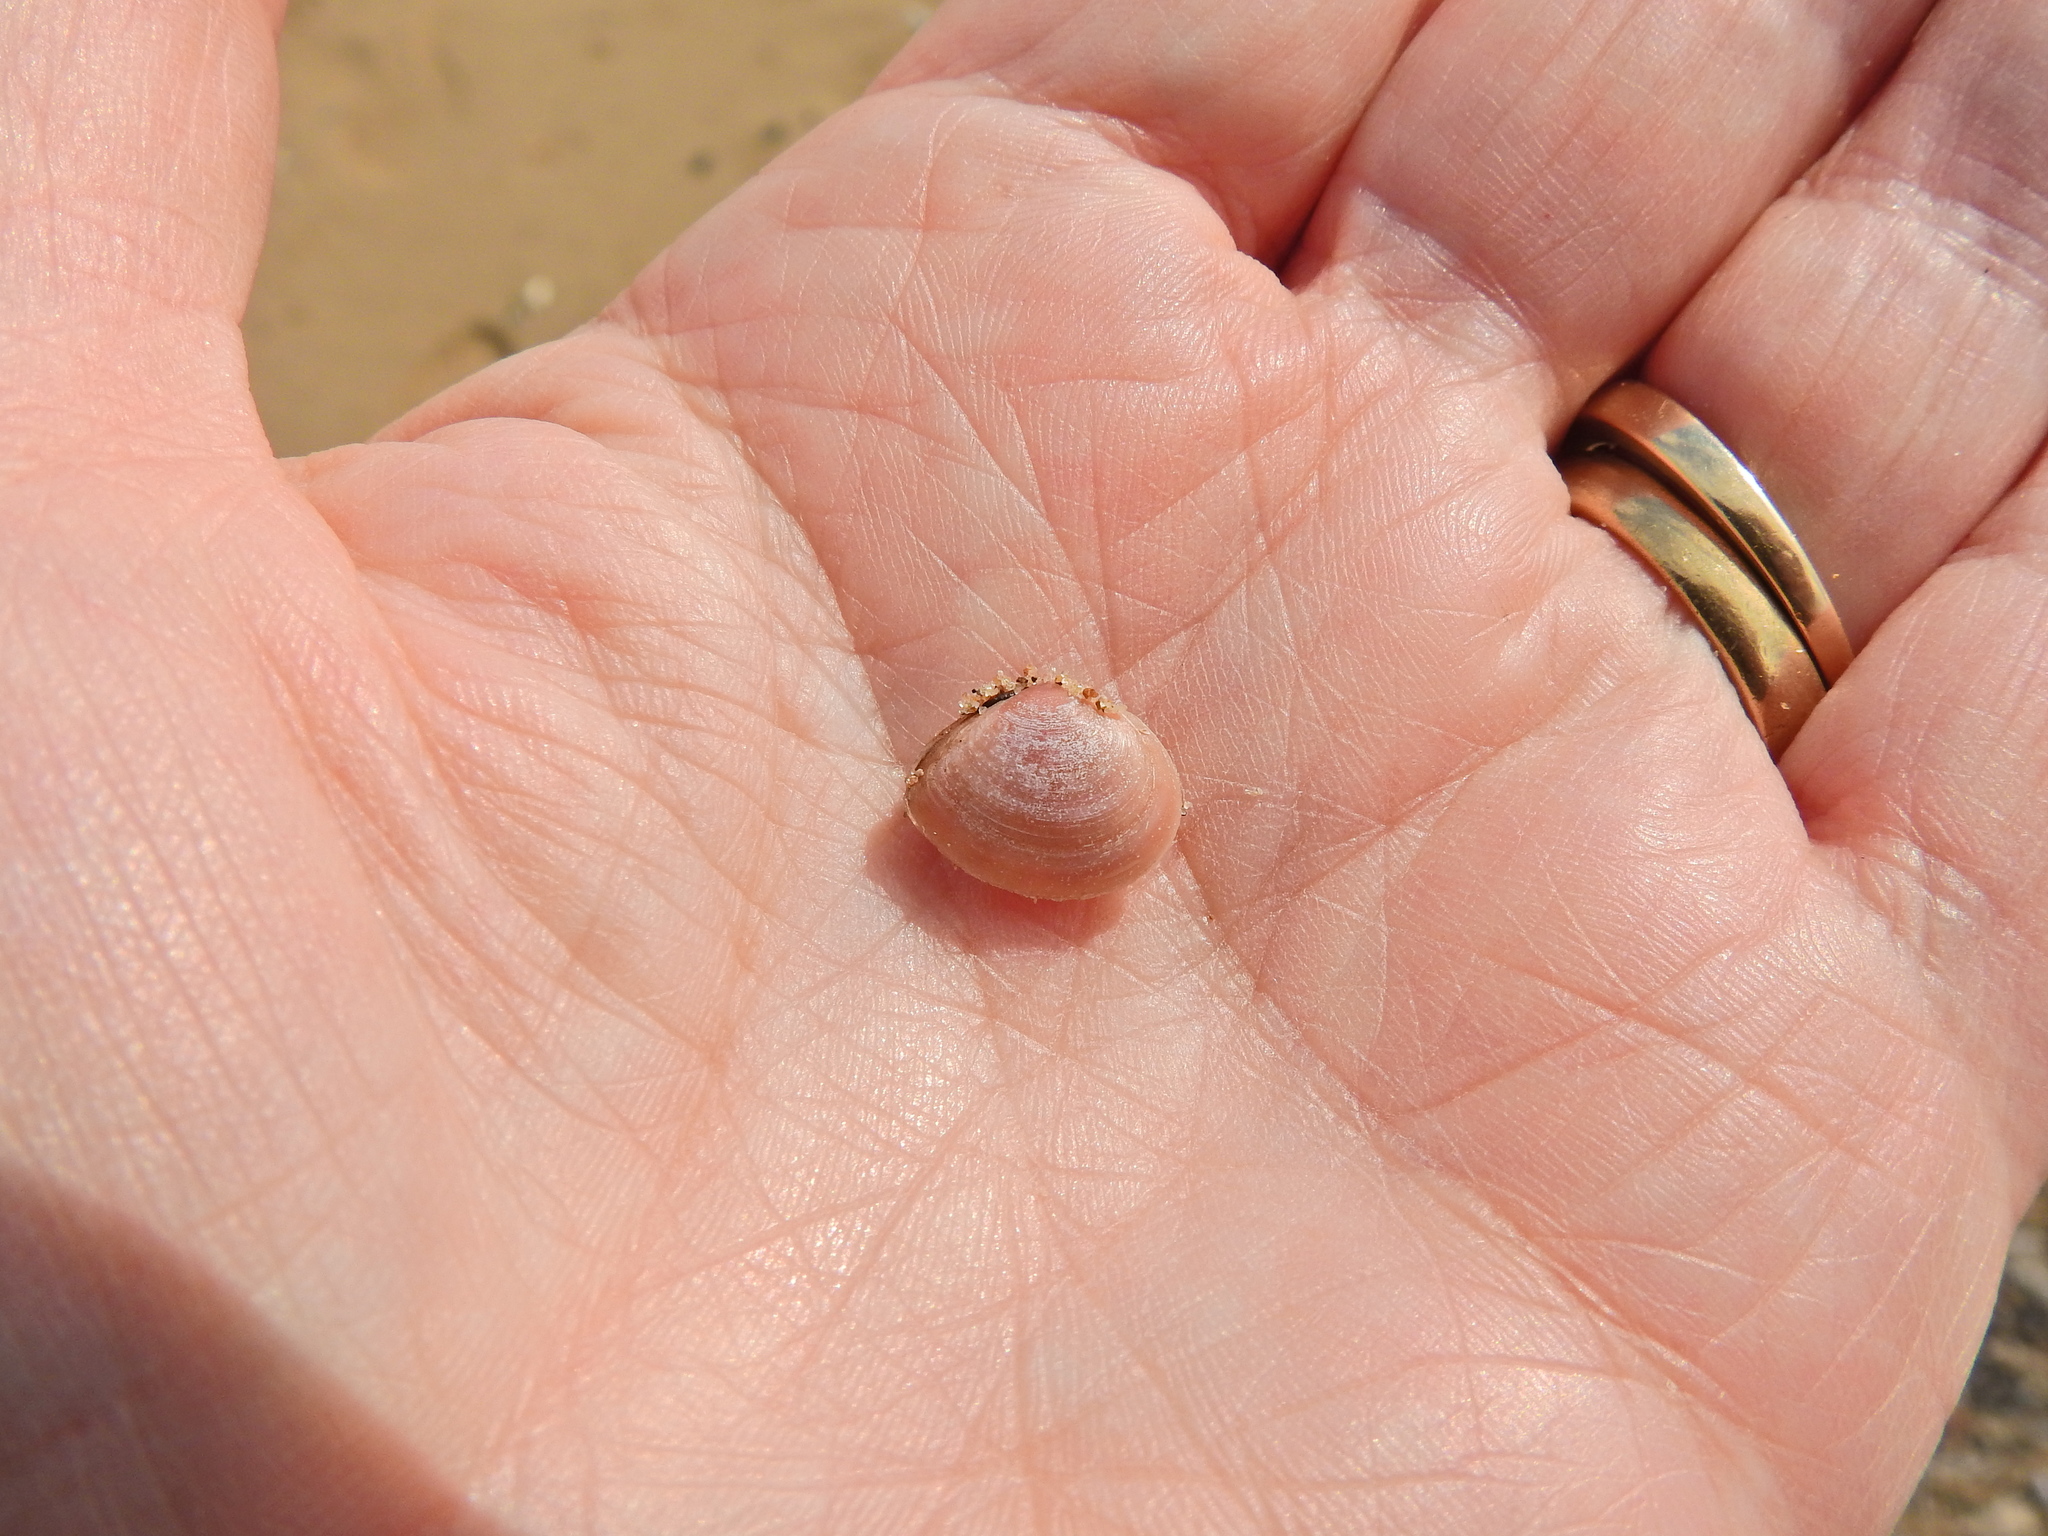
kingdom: Animalia
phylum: Mollusca
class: Bivalvia
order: Cardiida
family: Tellinidae
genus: Macoma
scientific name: Macoma balthica
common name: Baltic tellin
